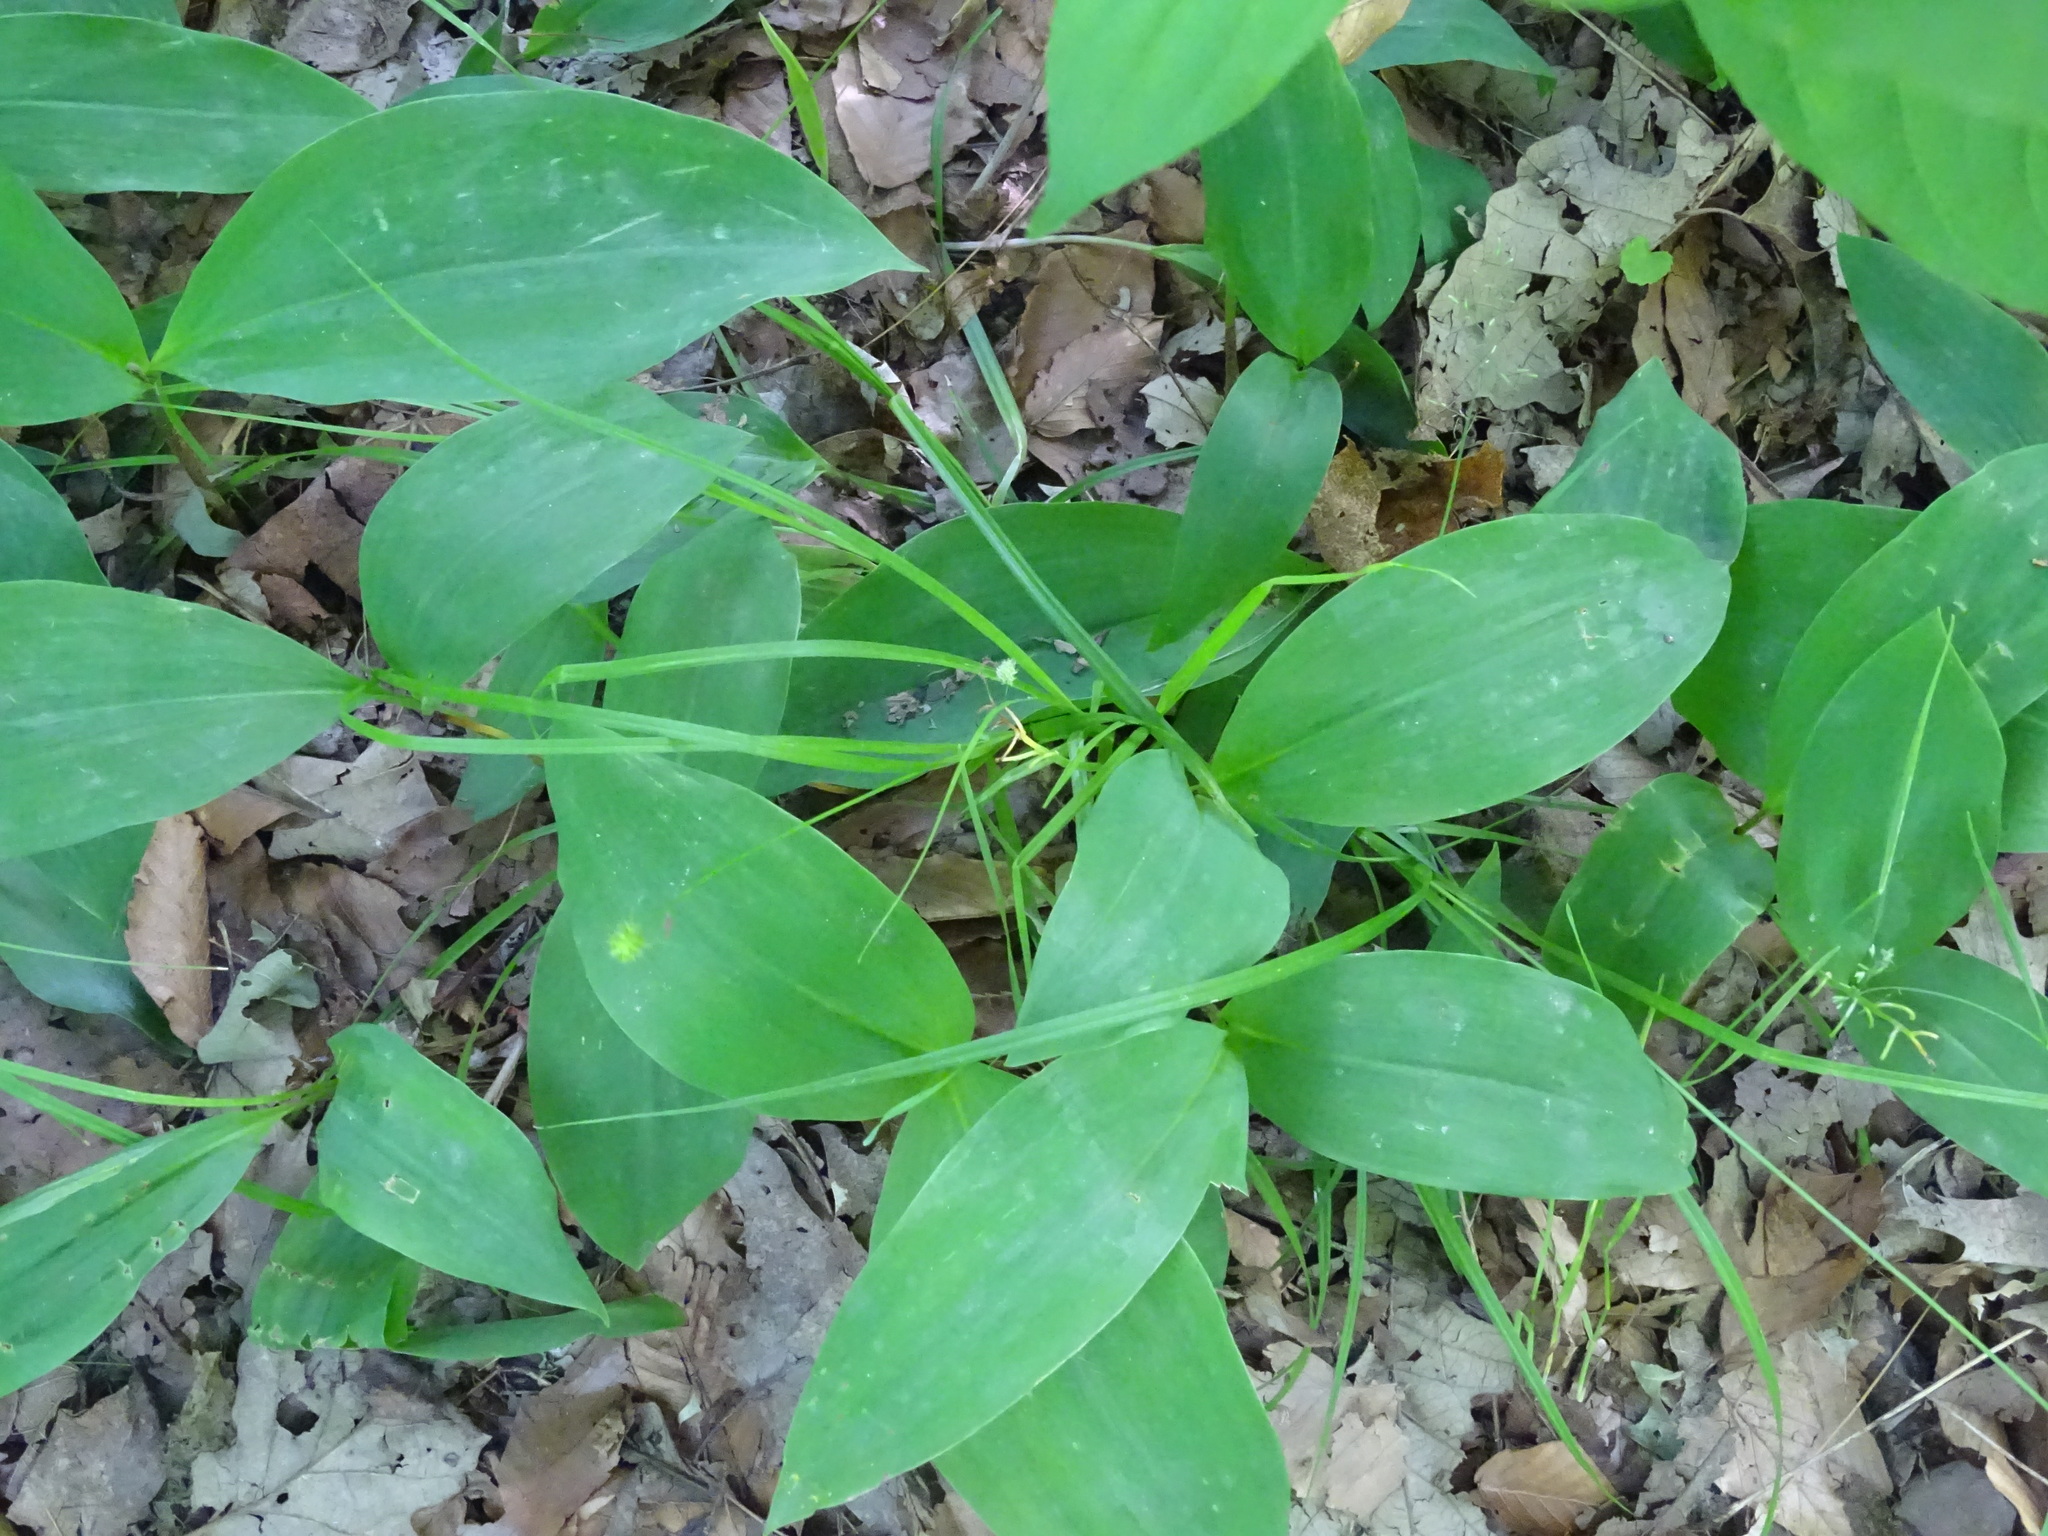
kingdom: Plantae
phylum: Tracheophyta
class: Liliopsida
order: Poales
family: Cyperaceae
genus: Carex
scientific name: Carex cephalophora
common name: Oval-headed sedge
